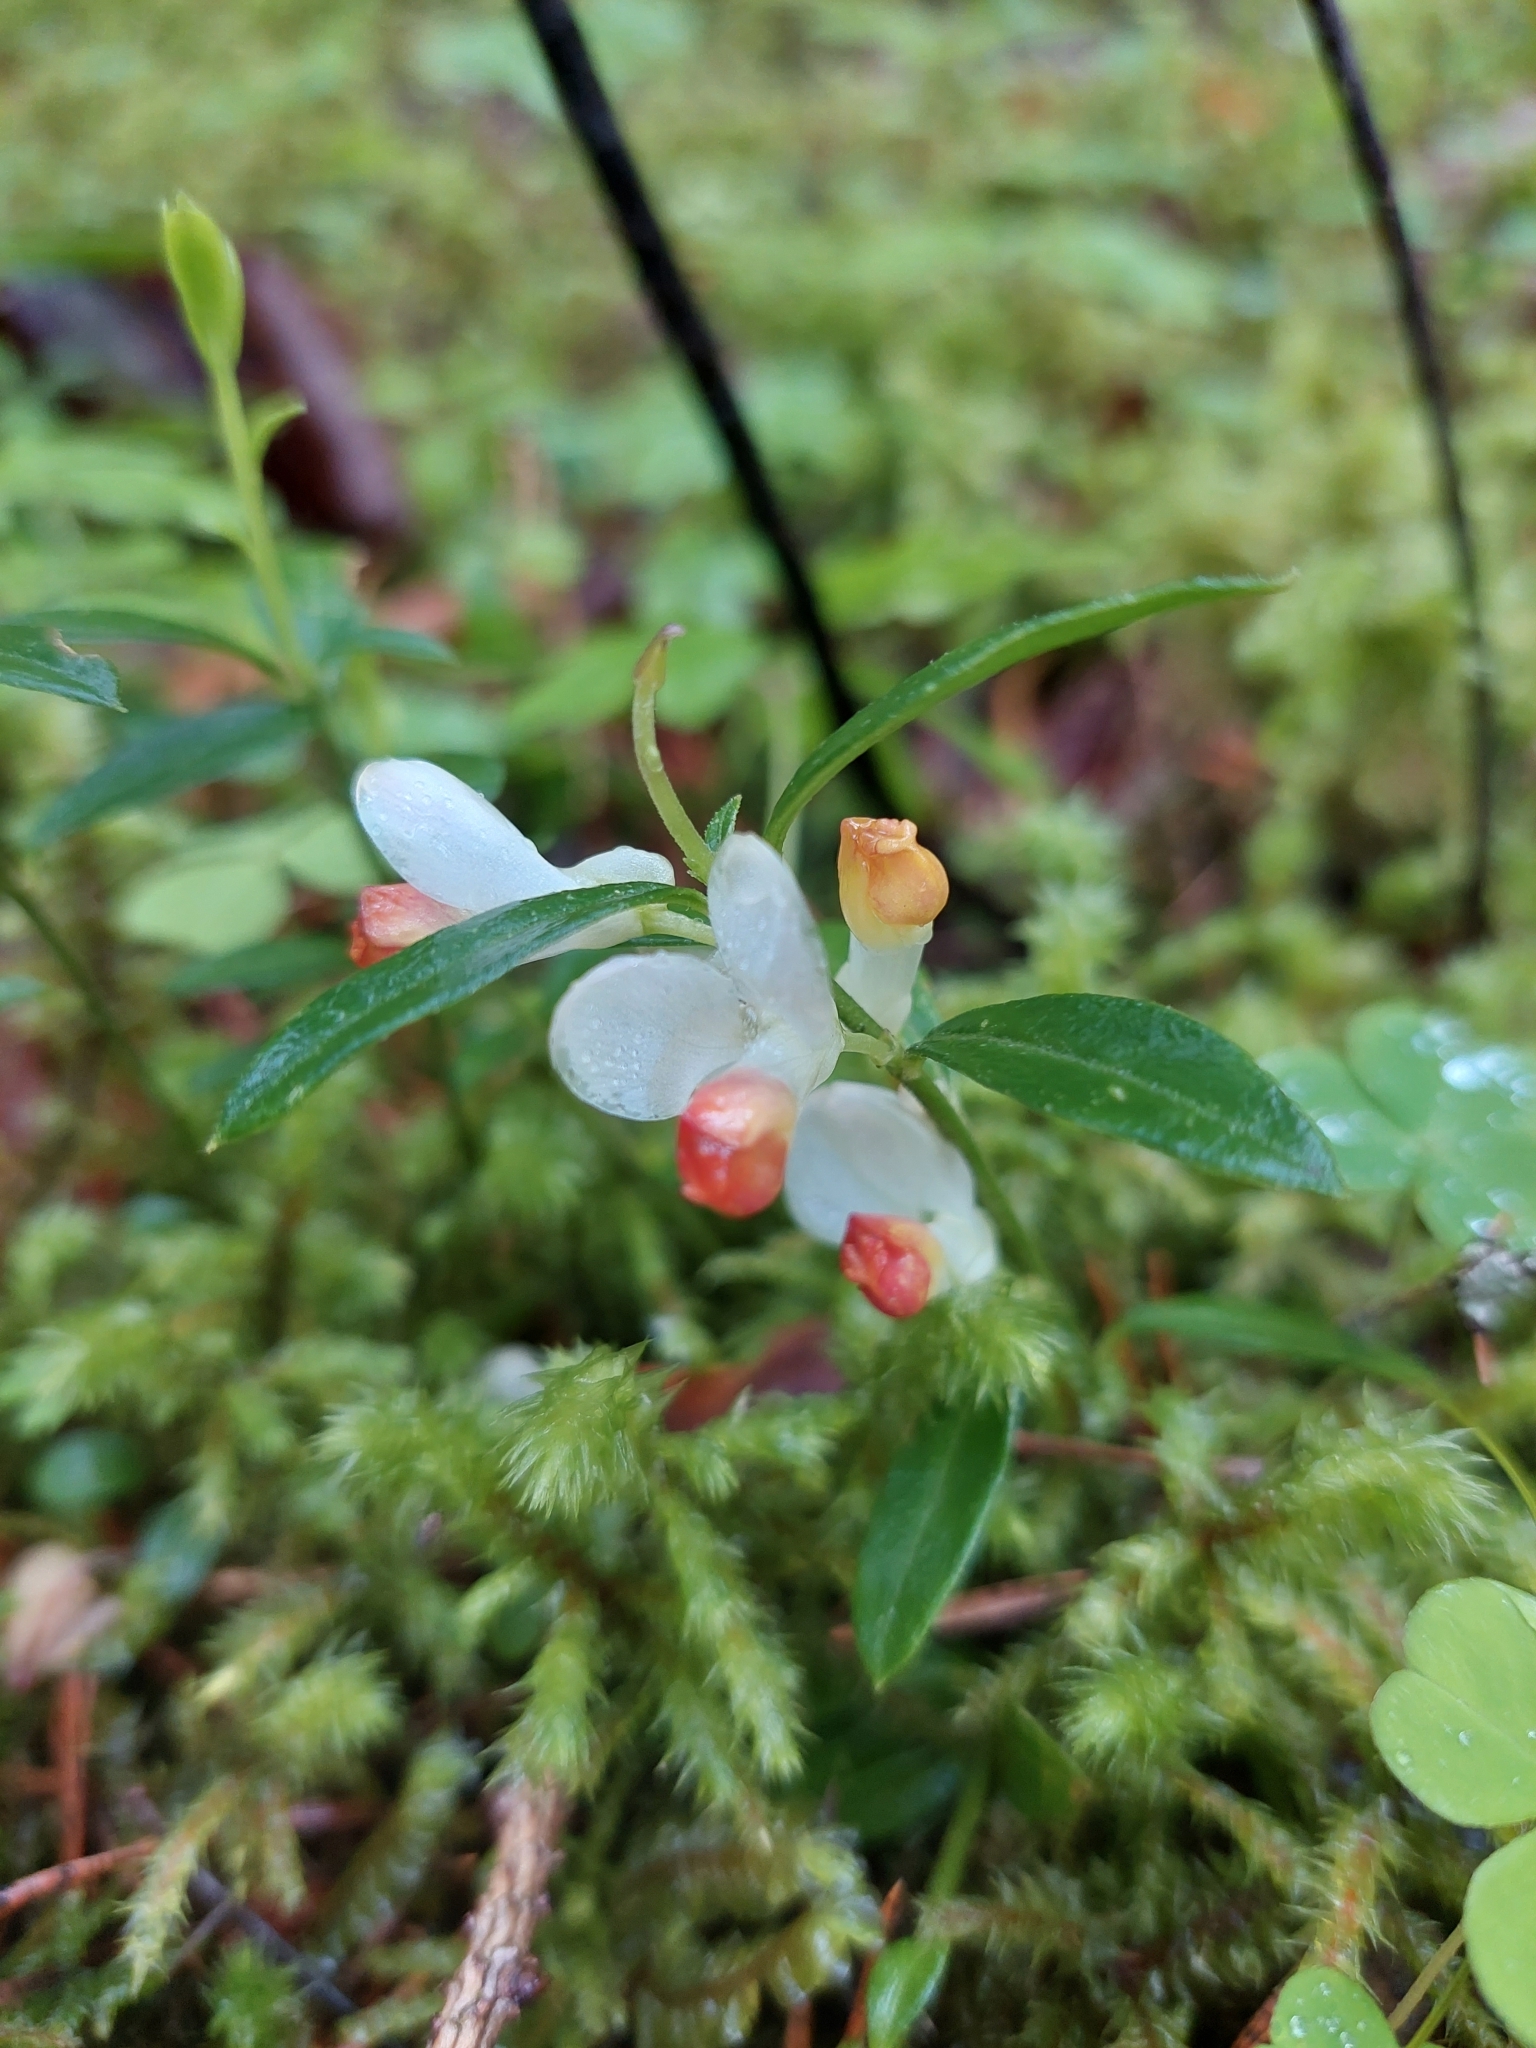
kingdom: Plantae
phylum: Tracheophyta
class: Magnoliopsida
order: Fabales
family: Polygalaceae
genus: Polygaloides
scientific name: Polygaloides chamaebuxus
